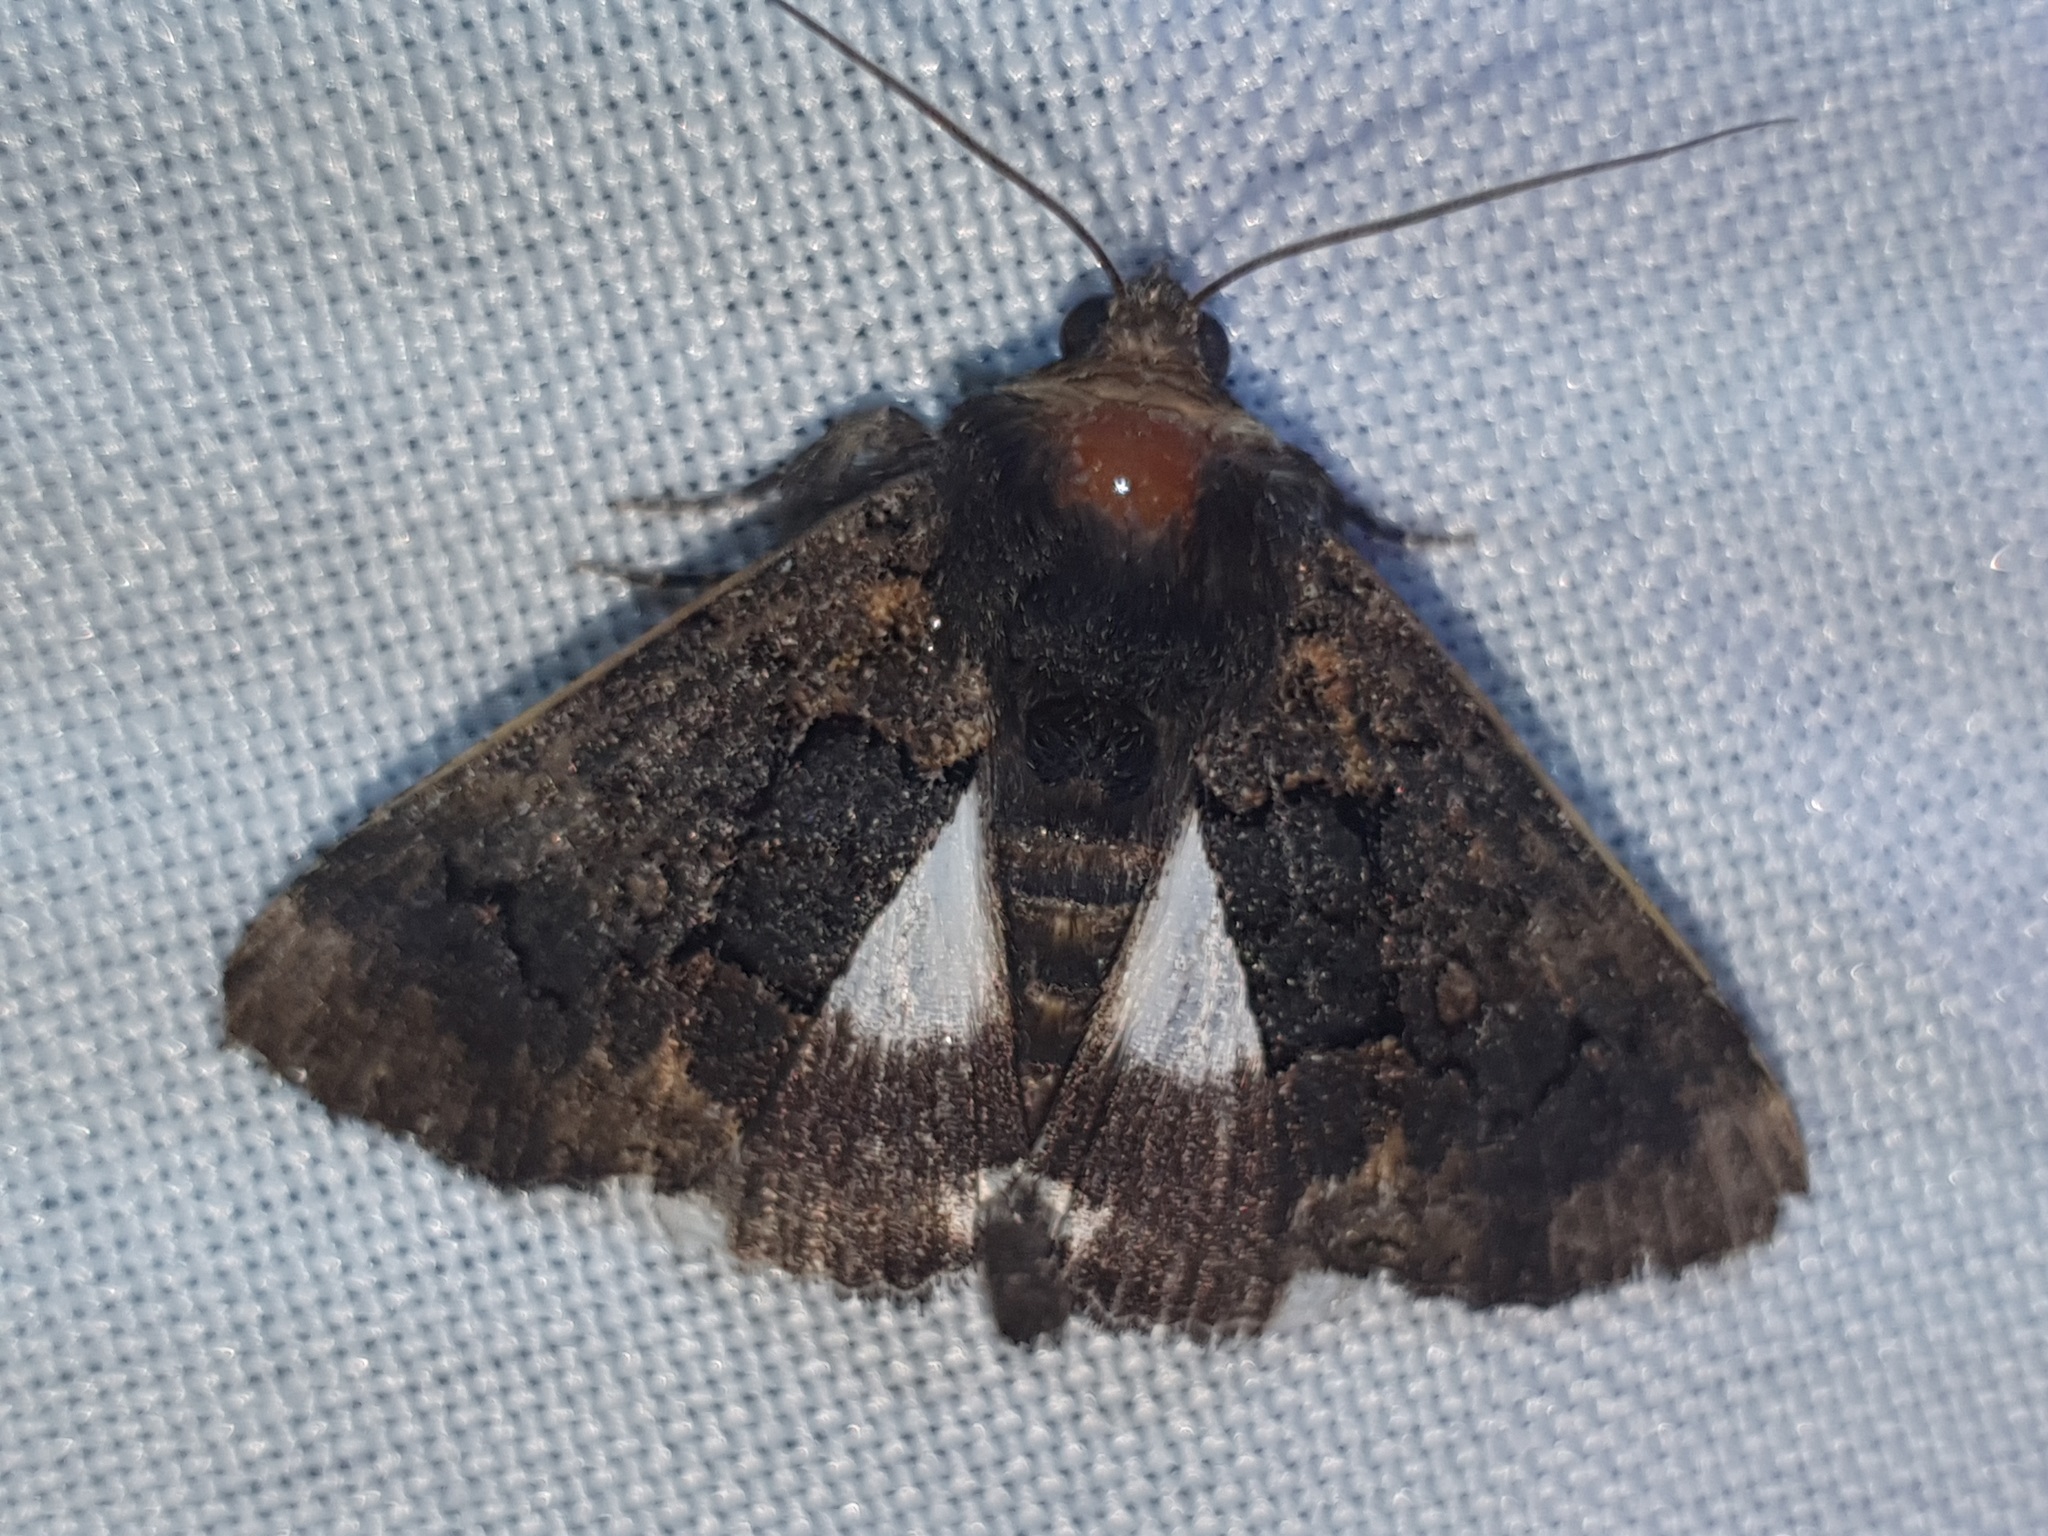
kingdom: Animalia
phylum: Arthropoda
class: Insecta
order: Lepidoptera
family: Erebidae
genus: Catephia
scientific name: Catephia alchymista
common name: Alchymist
